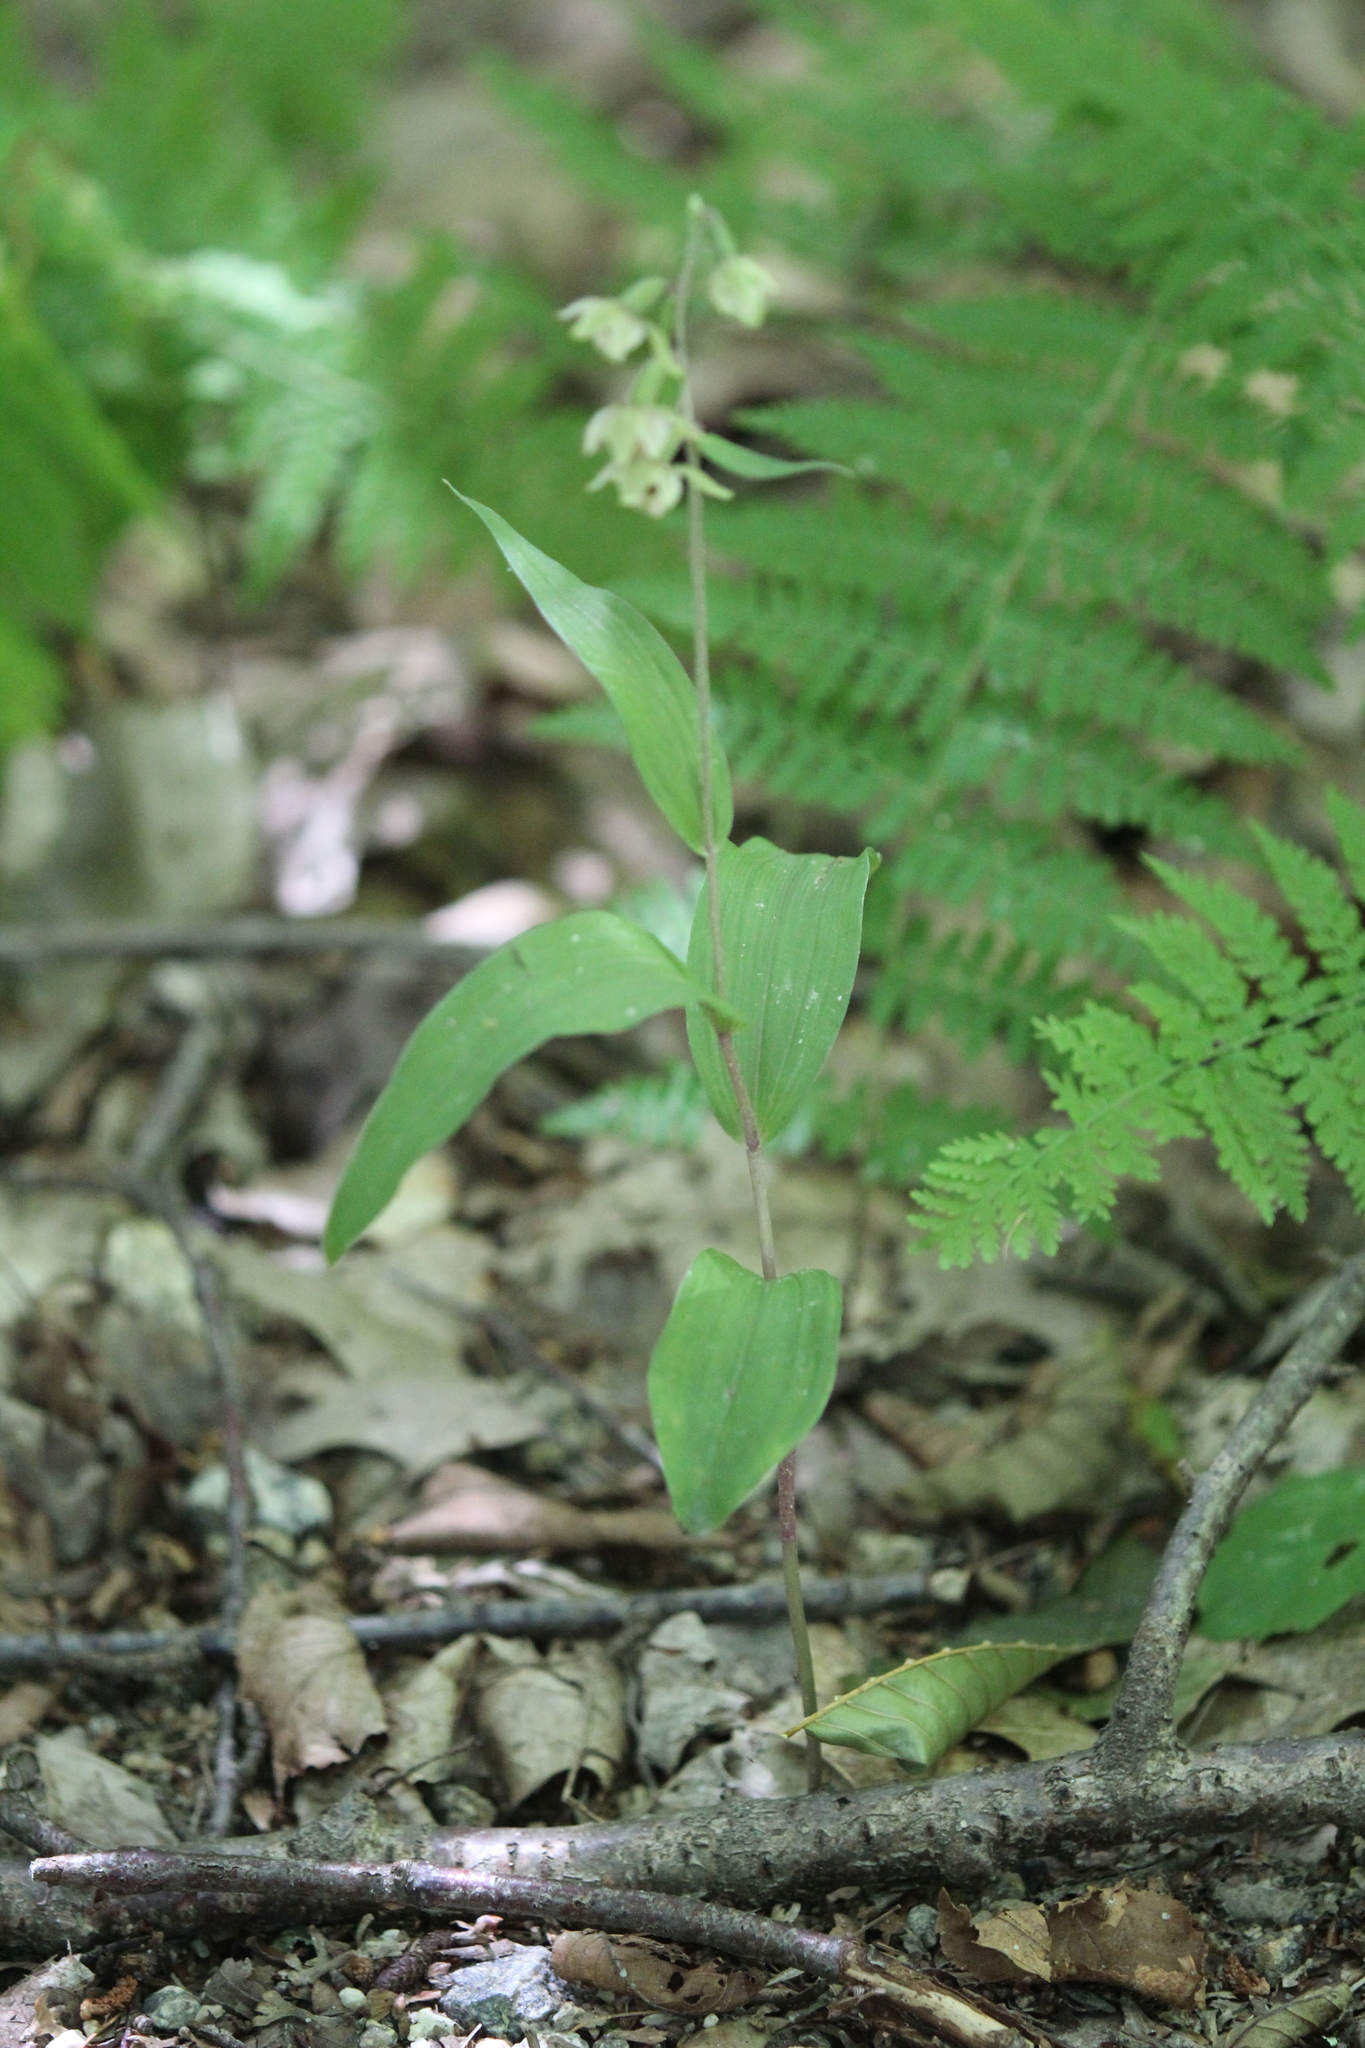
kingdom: Plantae
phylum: Tracheophyta
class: Liliopsida
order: Asparagales
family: Orchidaceae
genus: Epipactis
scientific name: Epipactis helleborine
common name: Broad-leaved helleborine
